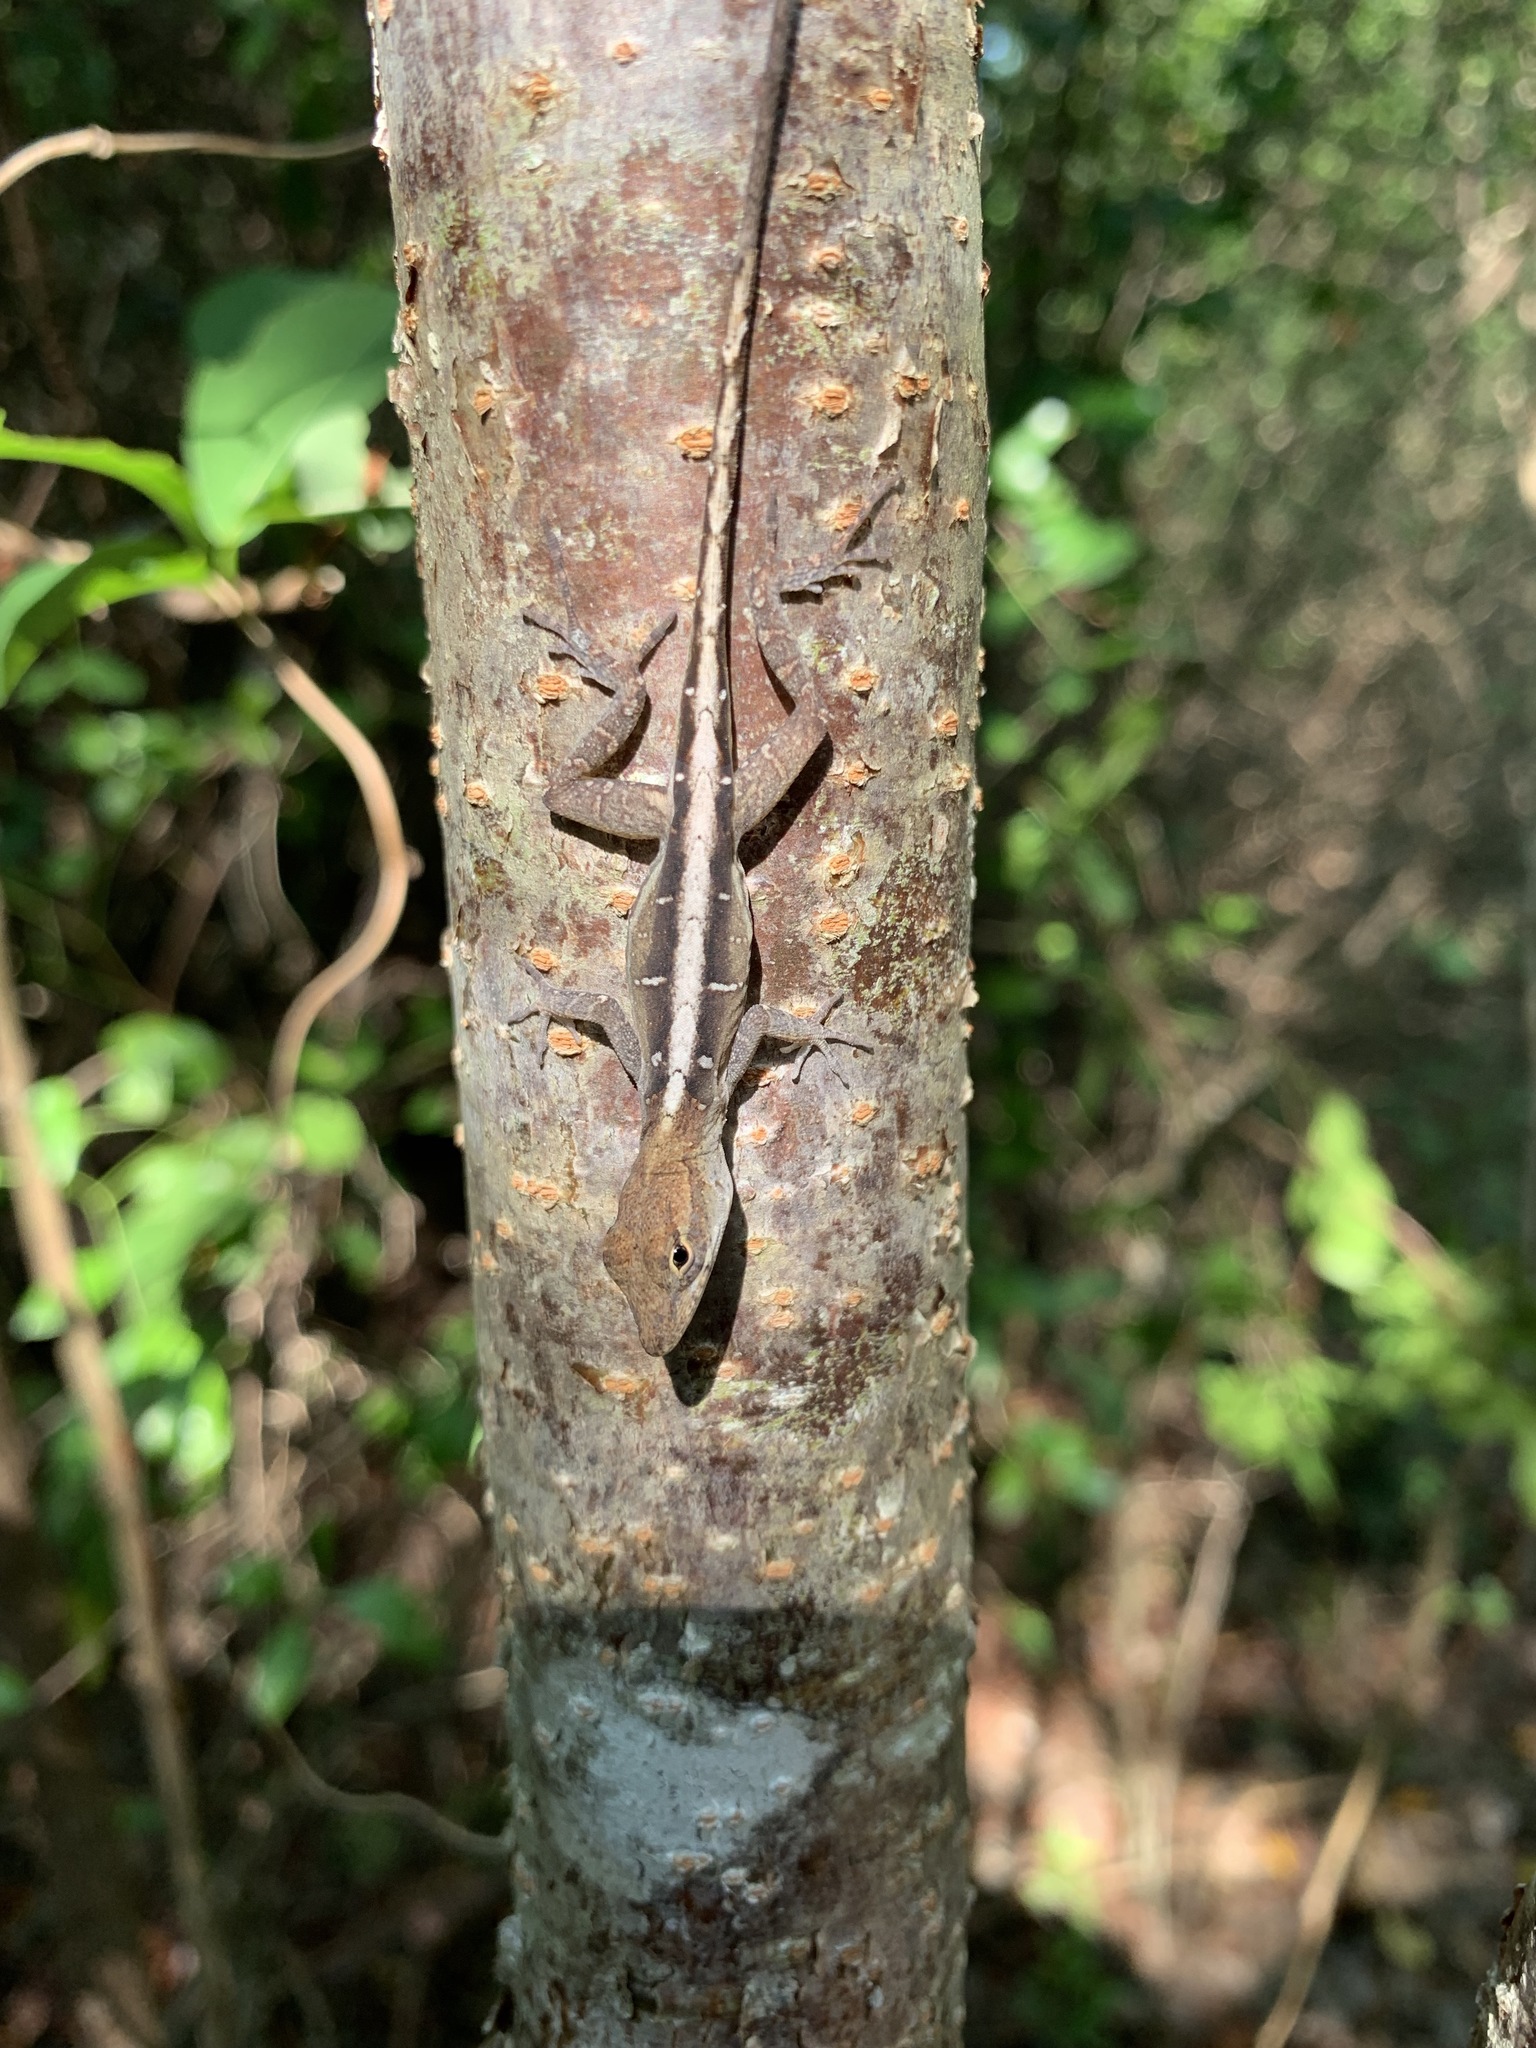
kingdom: Animalia
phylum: Chordata
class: Squamata
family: Dactyloidae
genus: Anolis
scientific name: Anolis sagrei
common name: Brown anole
